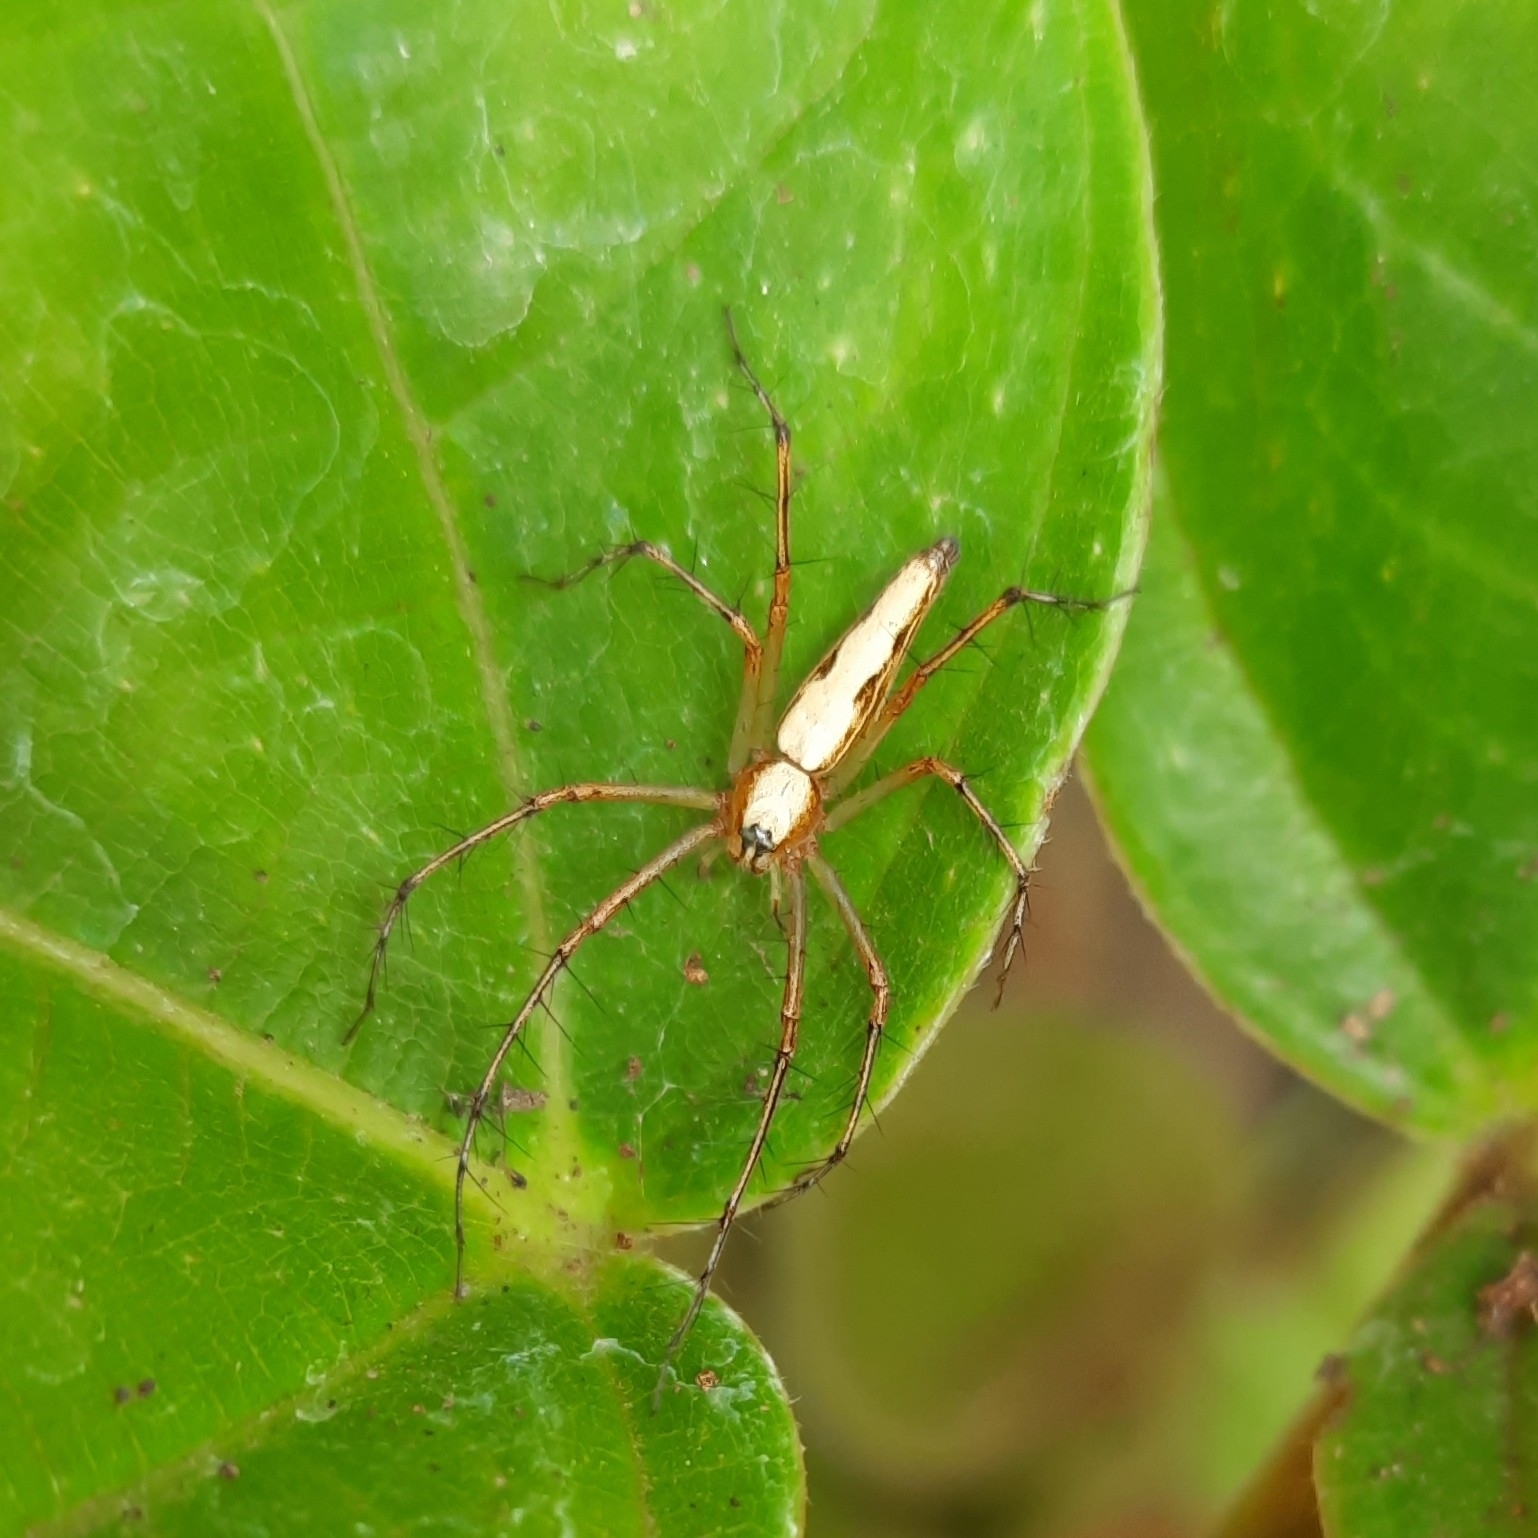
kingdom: Animalia
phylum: Arthropoda
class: Arachnida
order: Araneae
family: Oxyopidae
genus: Oxyopes
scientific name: Oxyopes shweta
